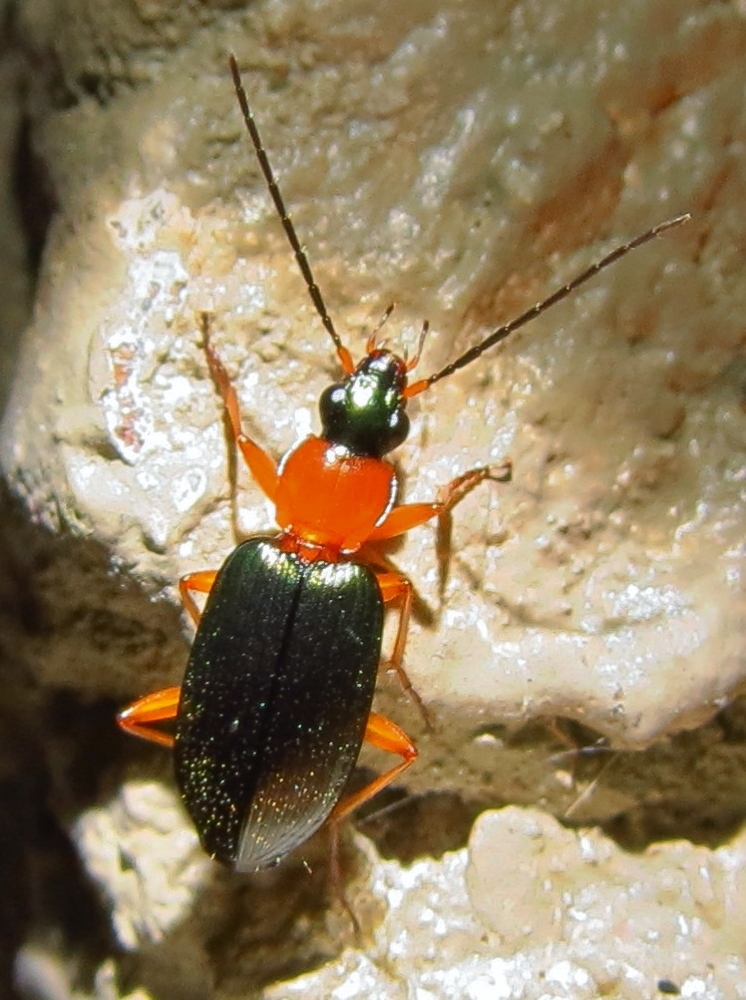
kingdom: Animalia
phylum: Arthropoda
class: Insecta
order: Coleoptera
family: Carabidae
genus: Agonum
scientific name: Agonum decorum
